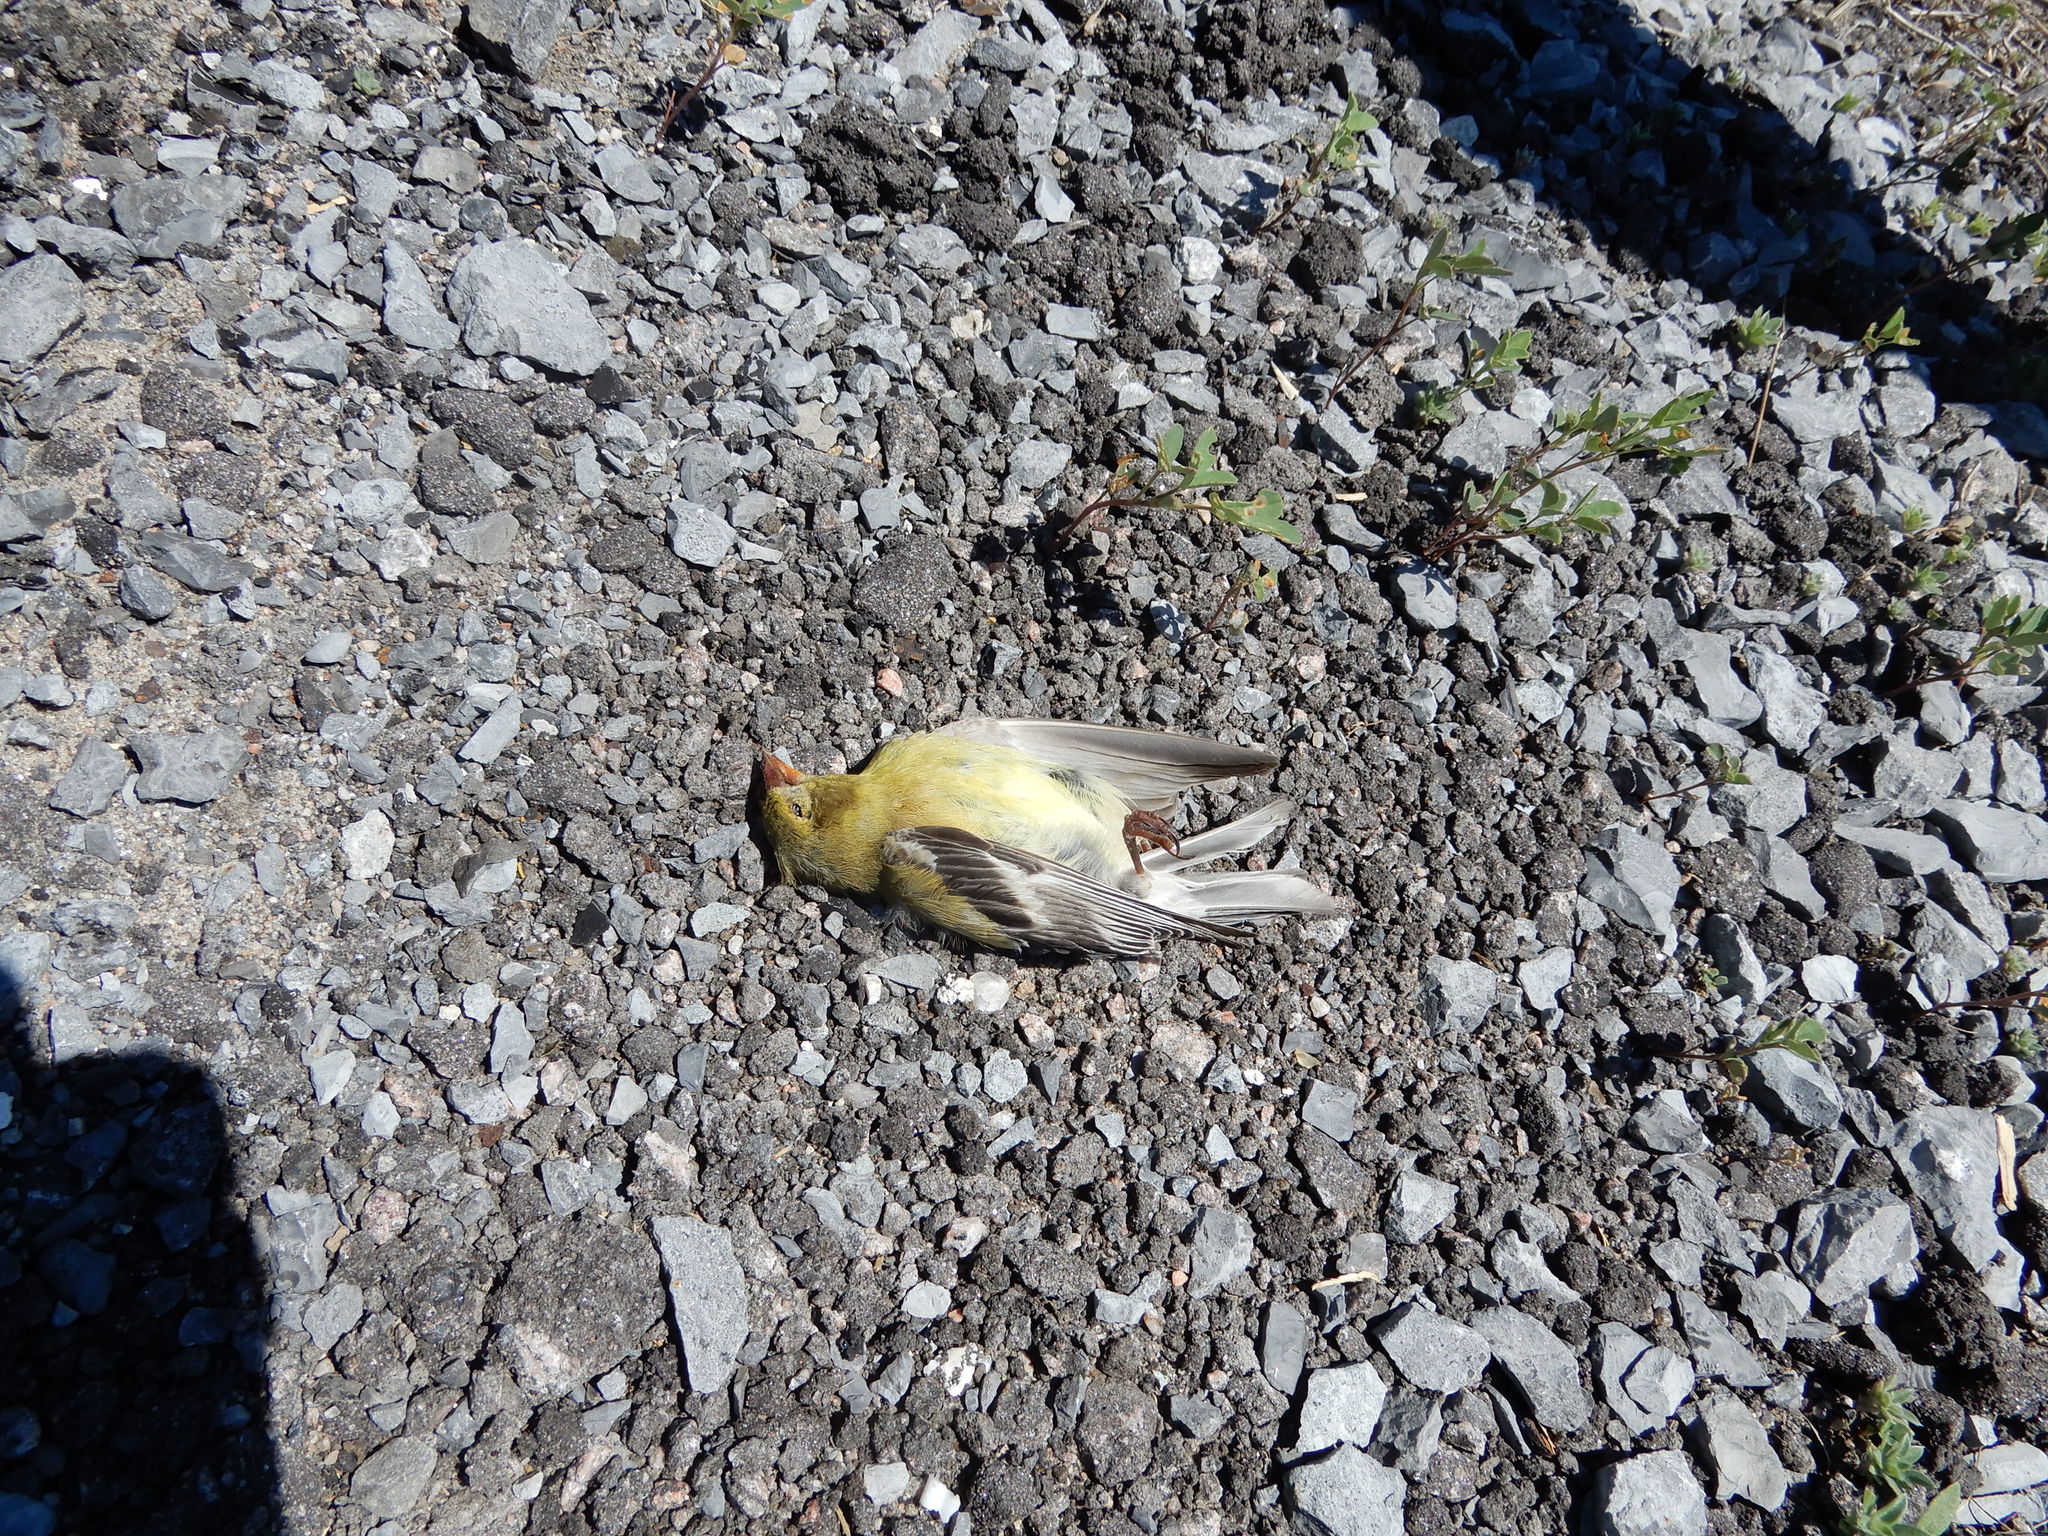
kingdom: Animalia
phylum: Chordata
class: Aves
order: Passeriformes
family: Fringillidae
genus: Spinus
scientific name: Spinus tristis
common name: American goldfinch
